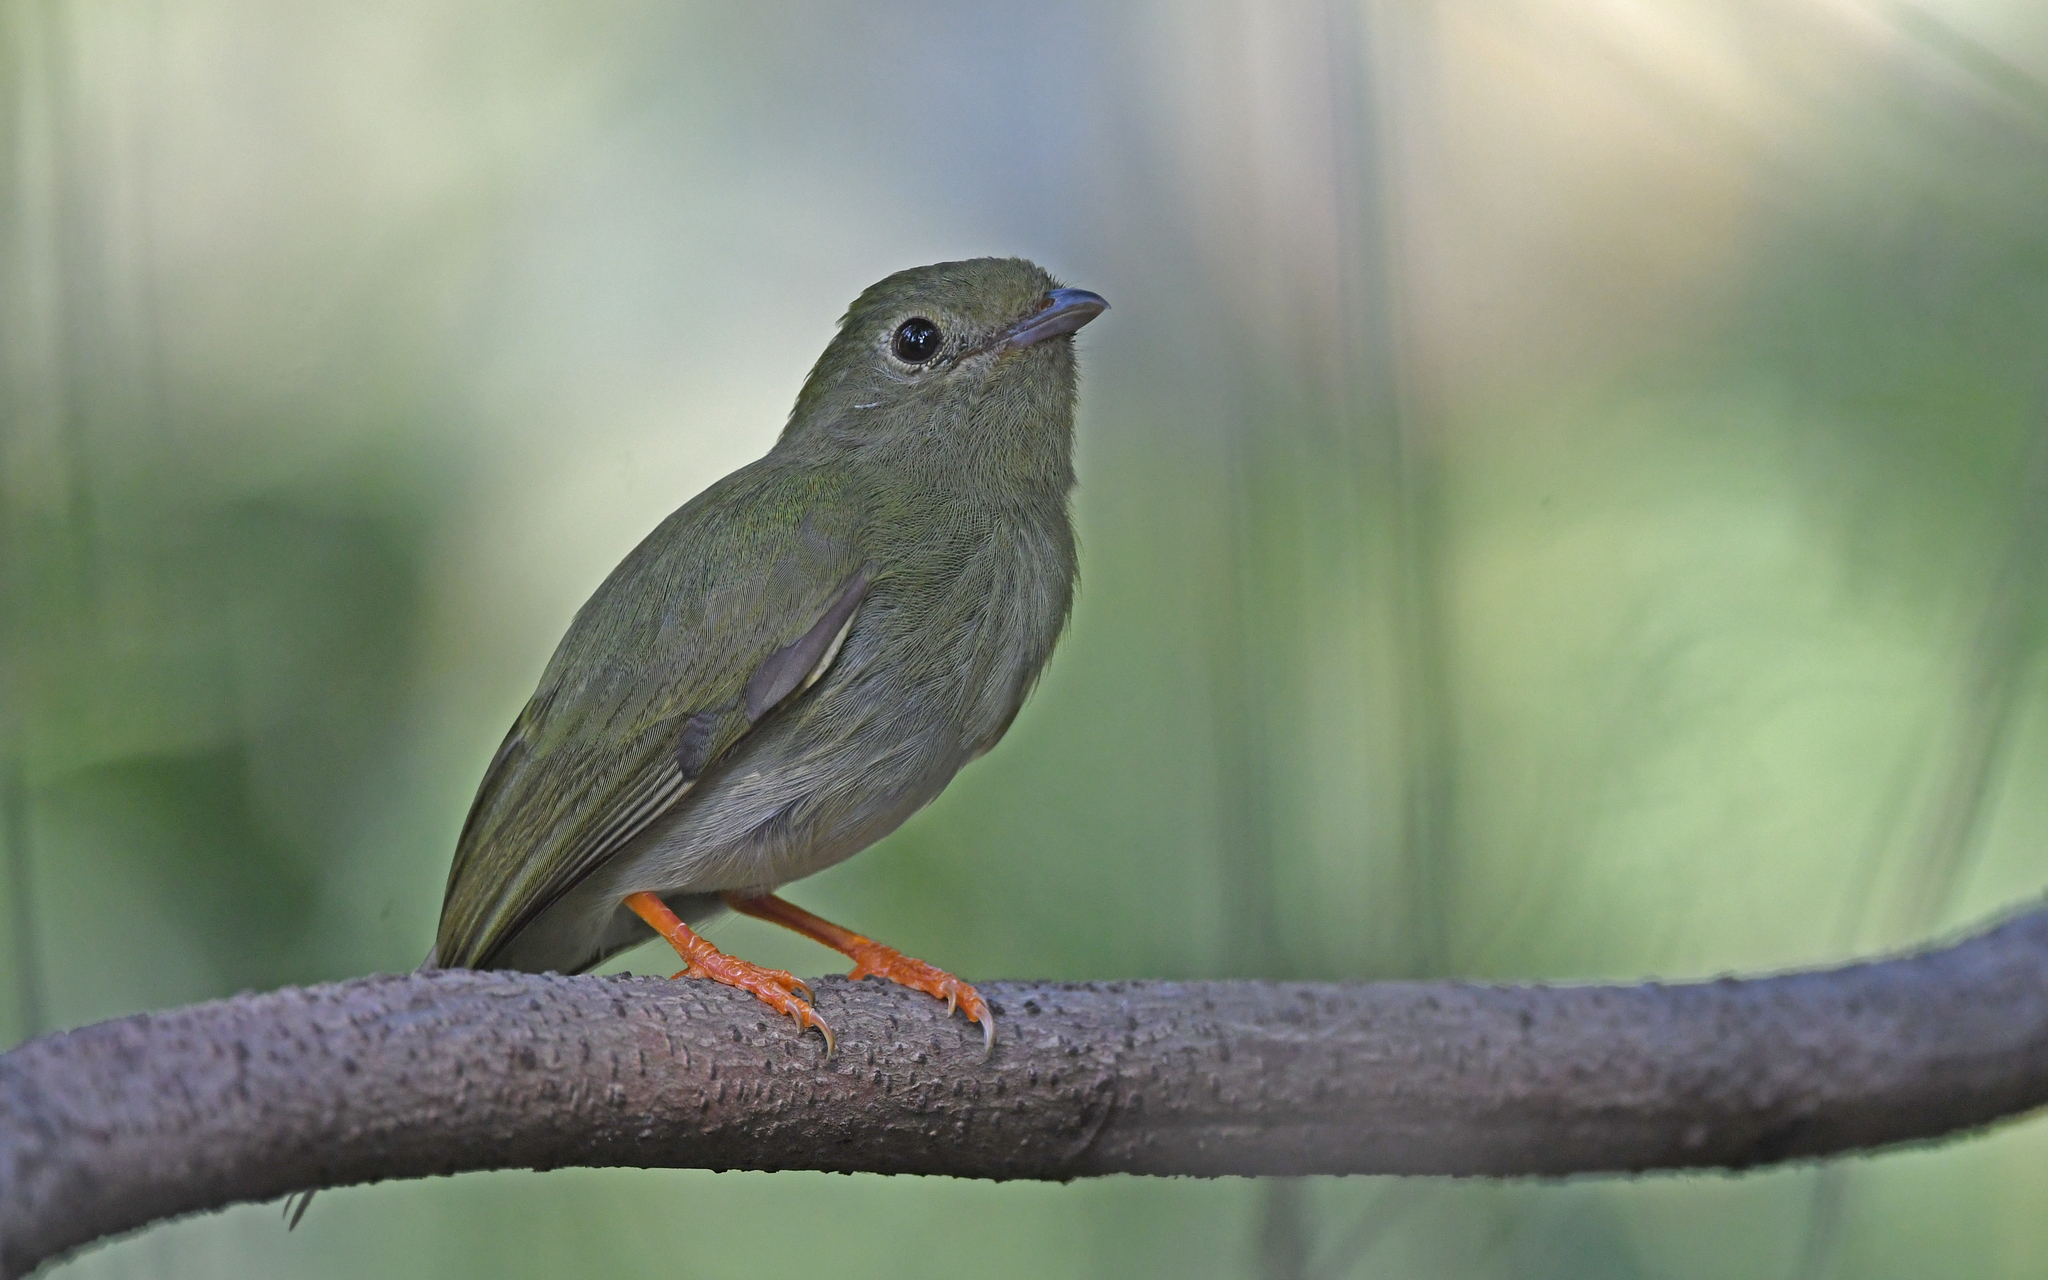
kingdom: Animalia
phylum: Chordata
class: Aves
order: Passeriformes
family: Pipridae
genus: Chiroxiphia
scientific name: Chiroxiphia lanceolata
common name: Lance-tailed manakin
